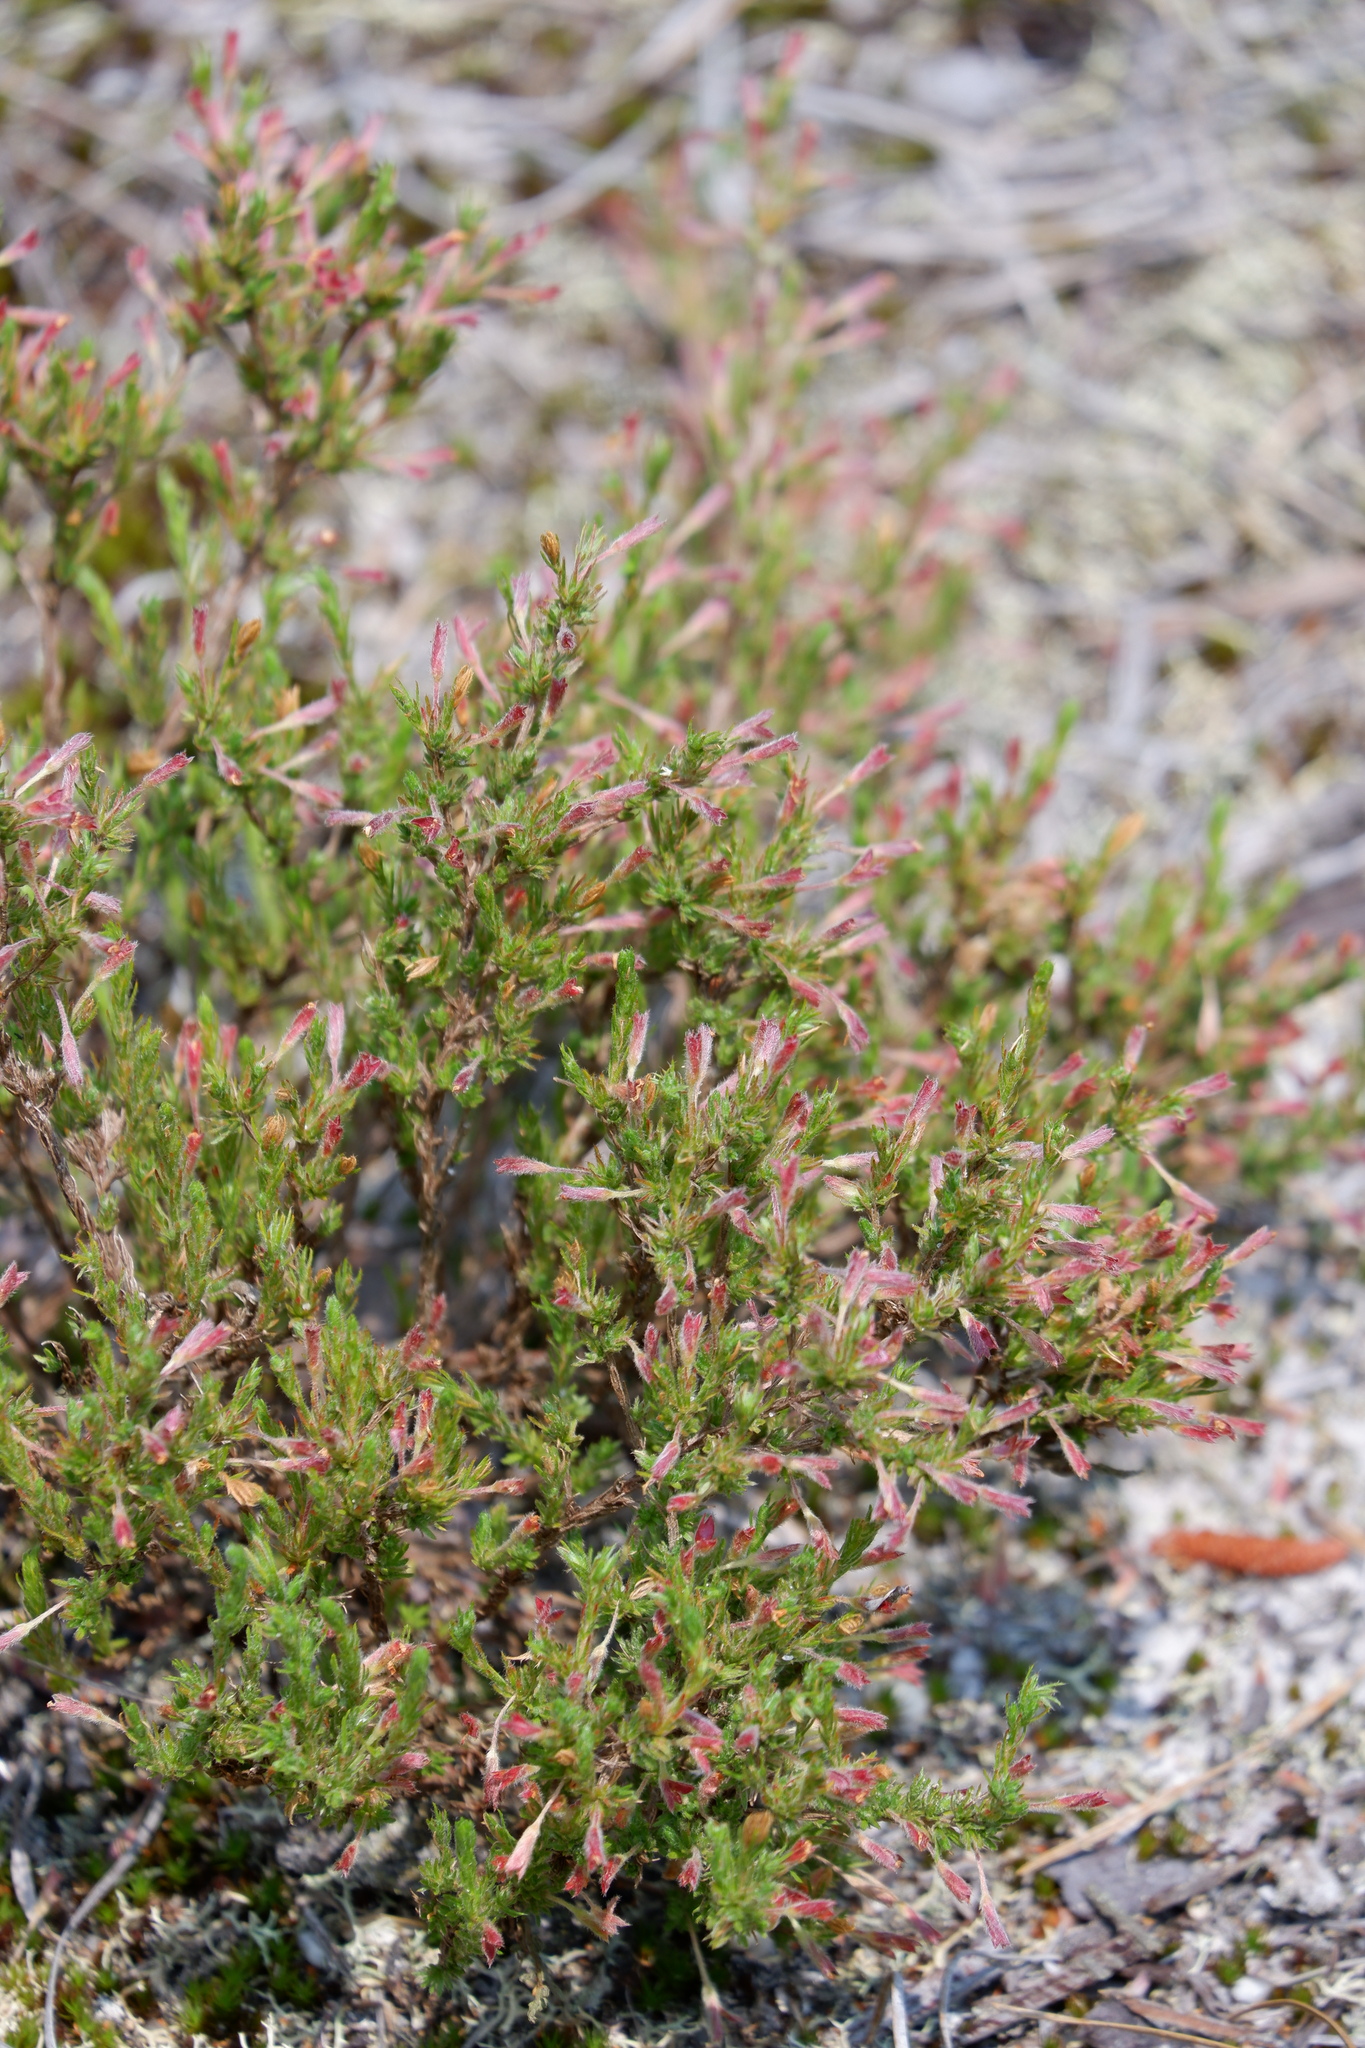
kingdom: Plantae
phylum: Tracheophyta
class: Magnoliopsida
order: Malvales
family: Cistaceae
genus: Hudsonia
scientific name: Hudsonia ericoides
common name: Golden-heather
